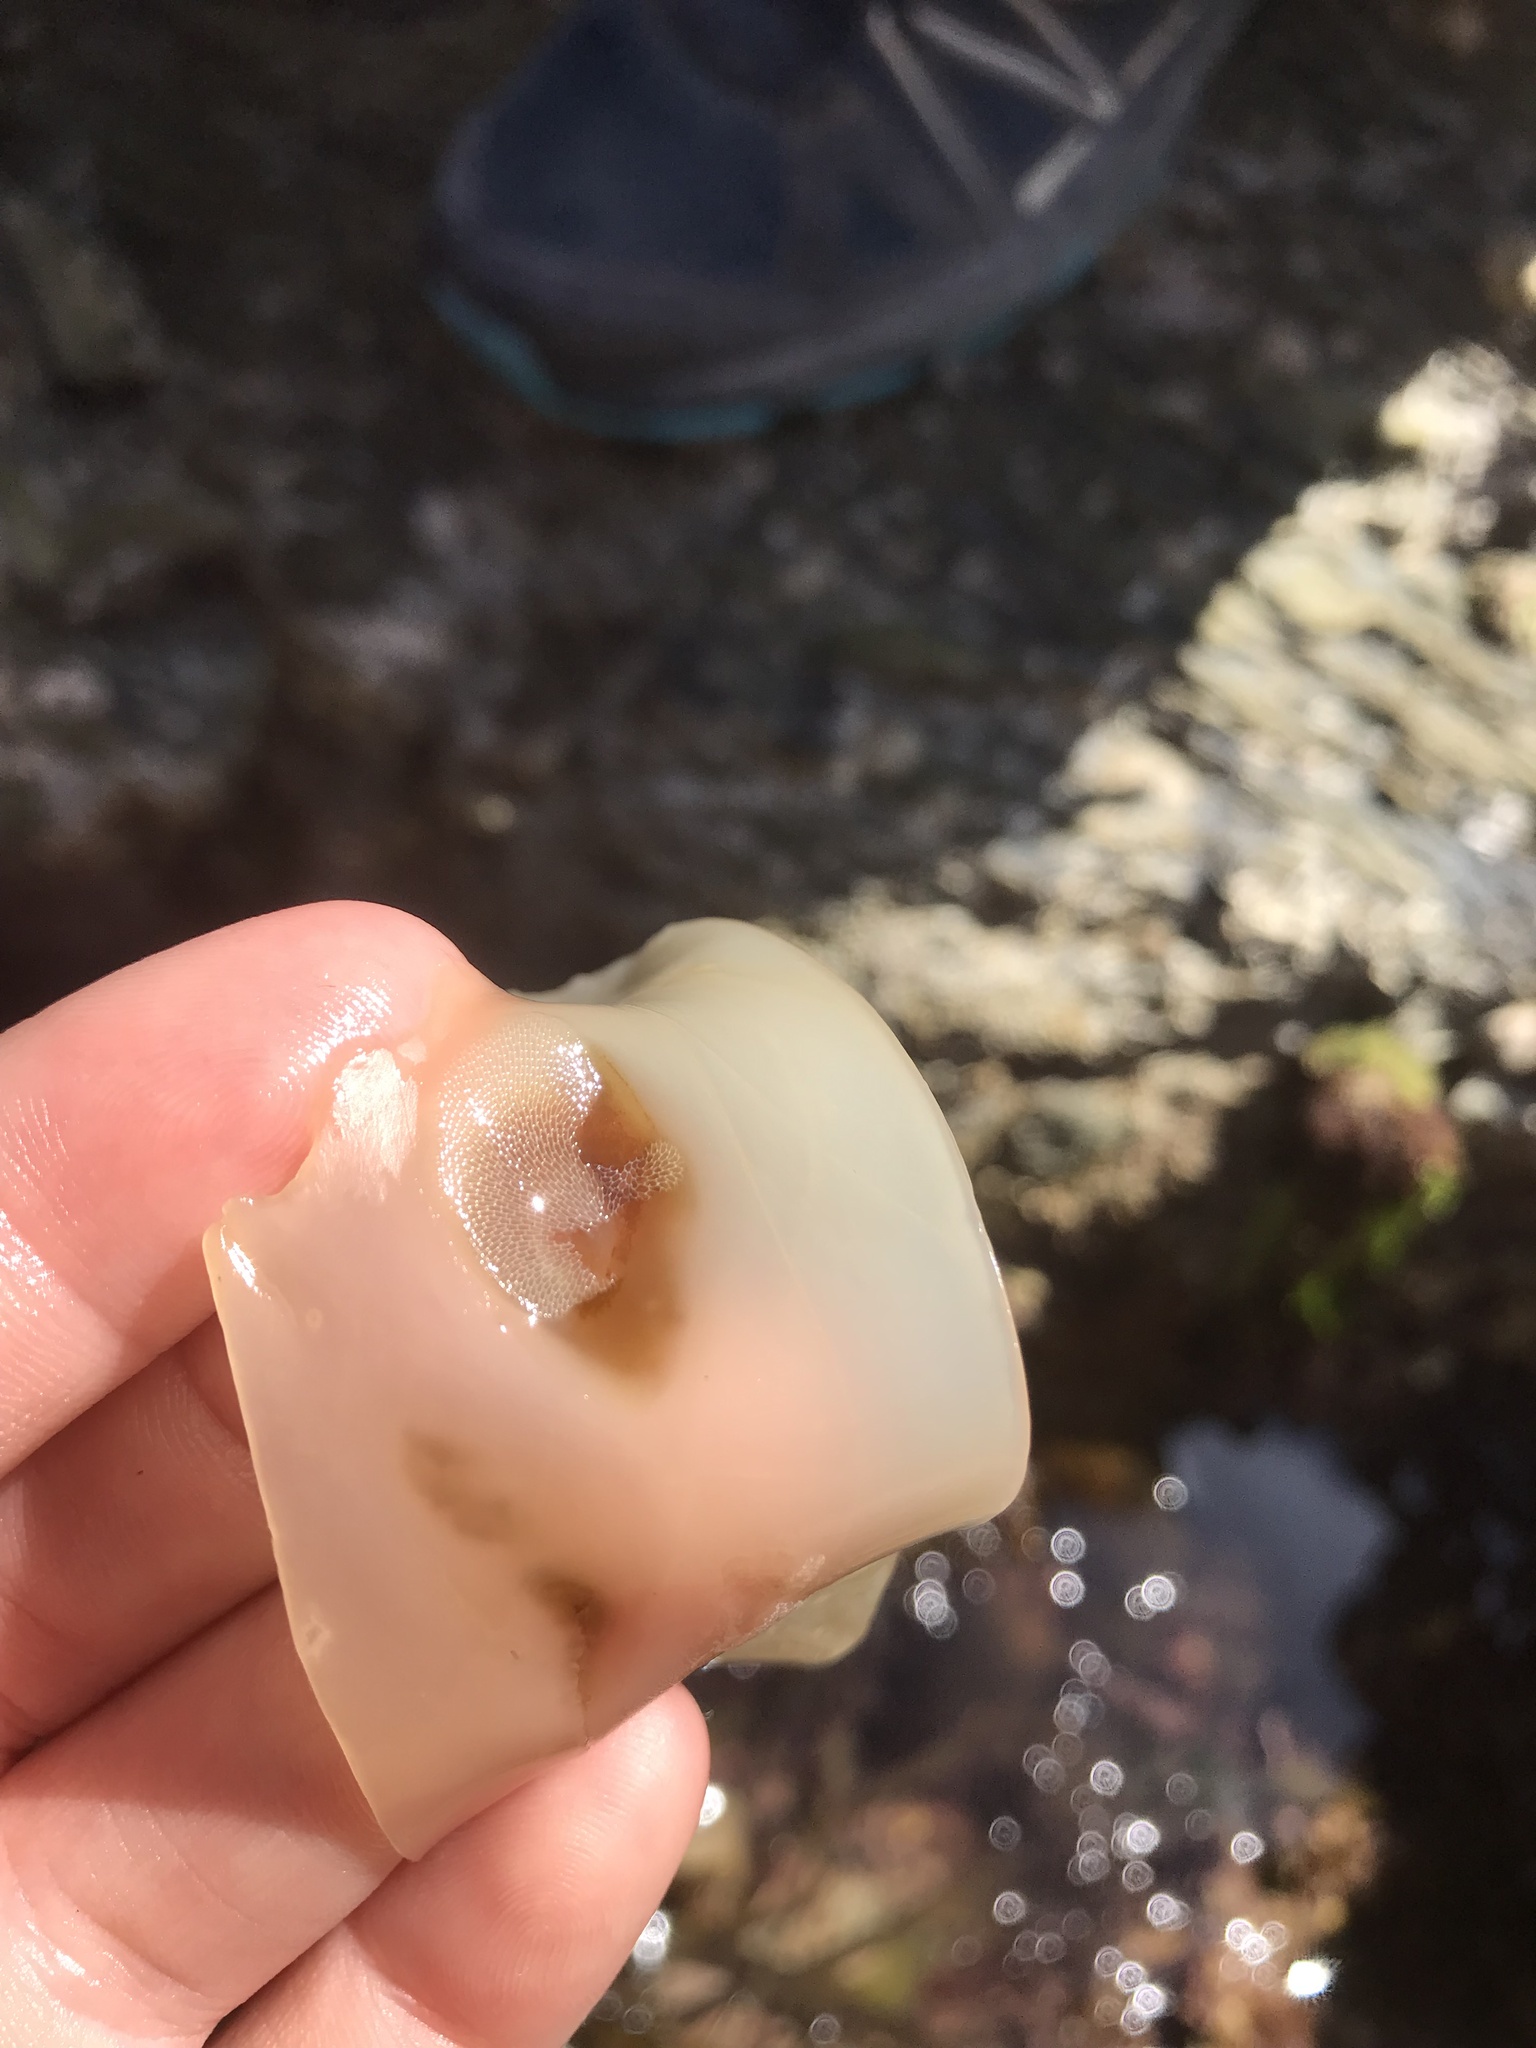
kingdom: Animalia
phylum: Bryozoa
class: Gymnolaemata
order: Cheilostomatida
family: Membraniporidae
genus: Membranipora
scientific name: Membranipora membranacea
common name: Sea mat
